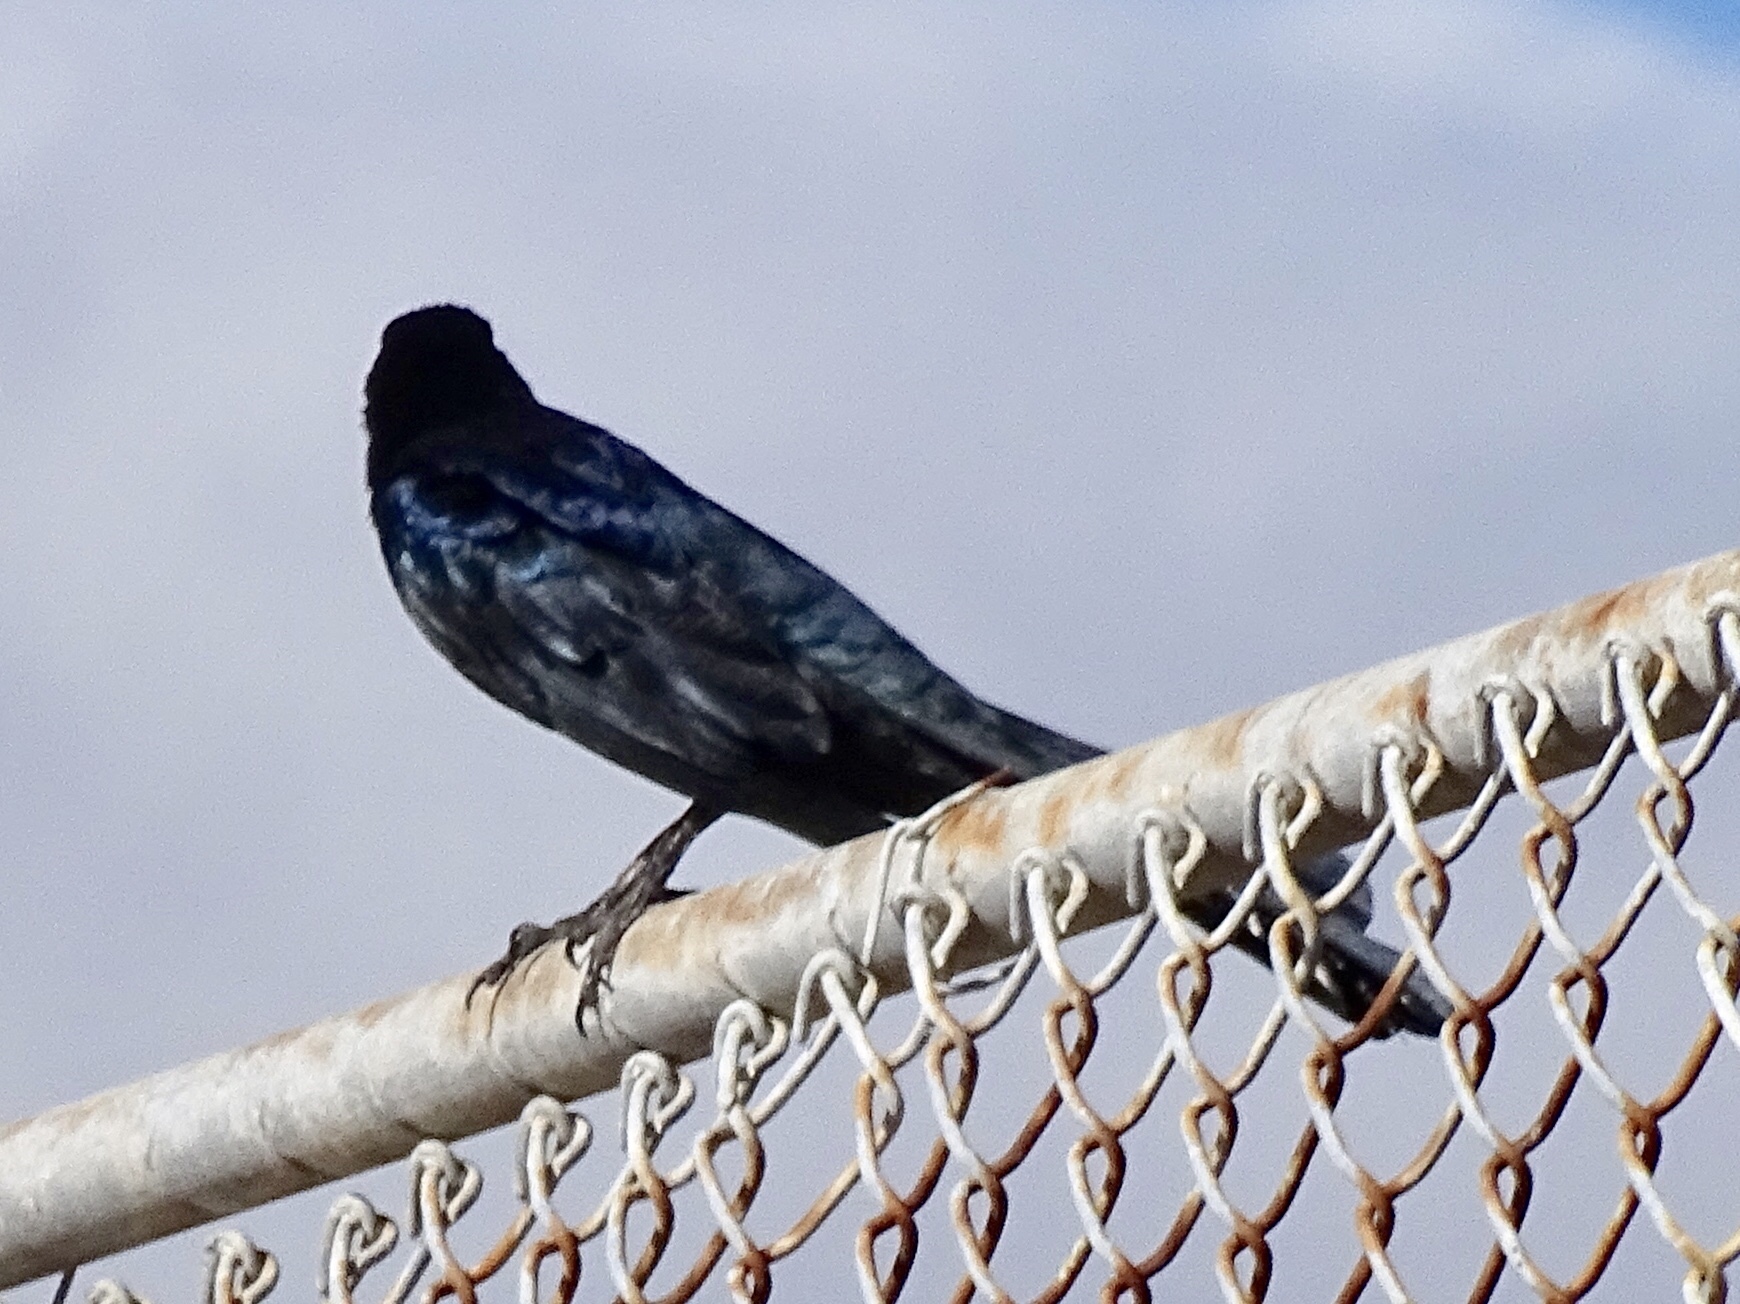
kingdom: Animalia
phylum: Chordata
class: Aves
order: Passeriformes
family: Icteridae
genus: Quiscalus
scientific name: Quiscalus mexicanus
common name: Great-tailed grackle
